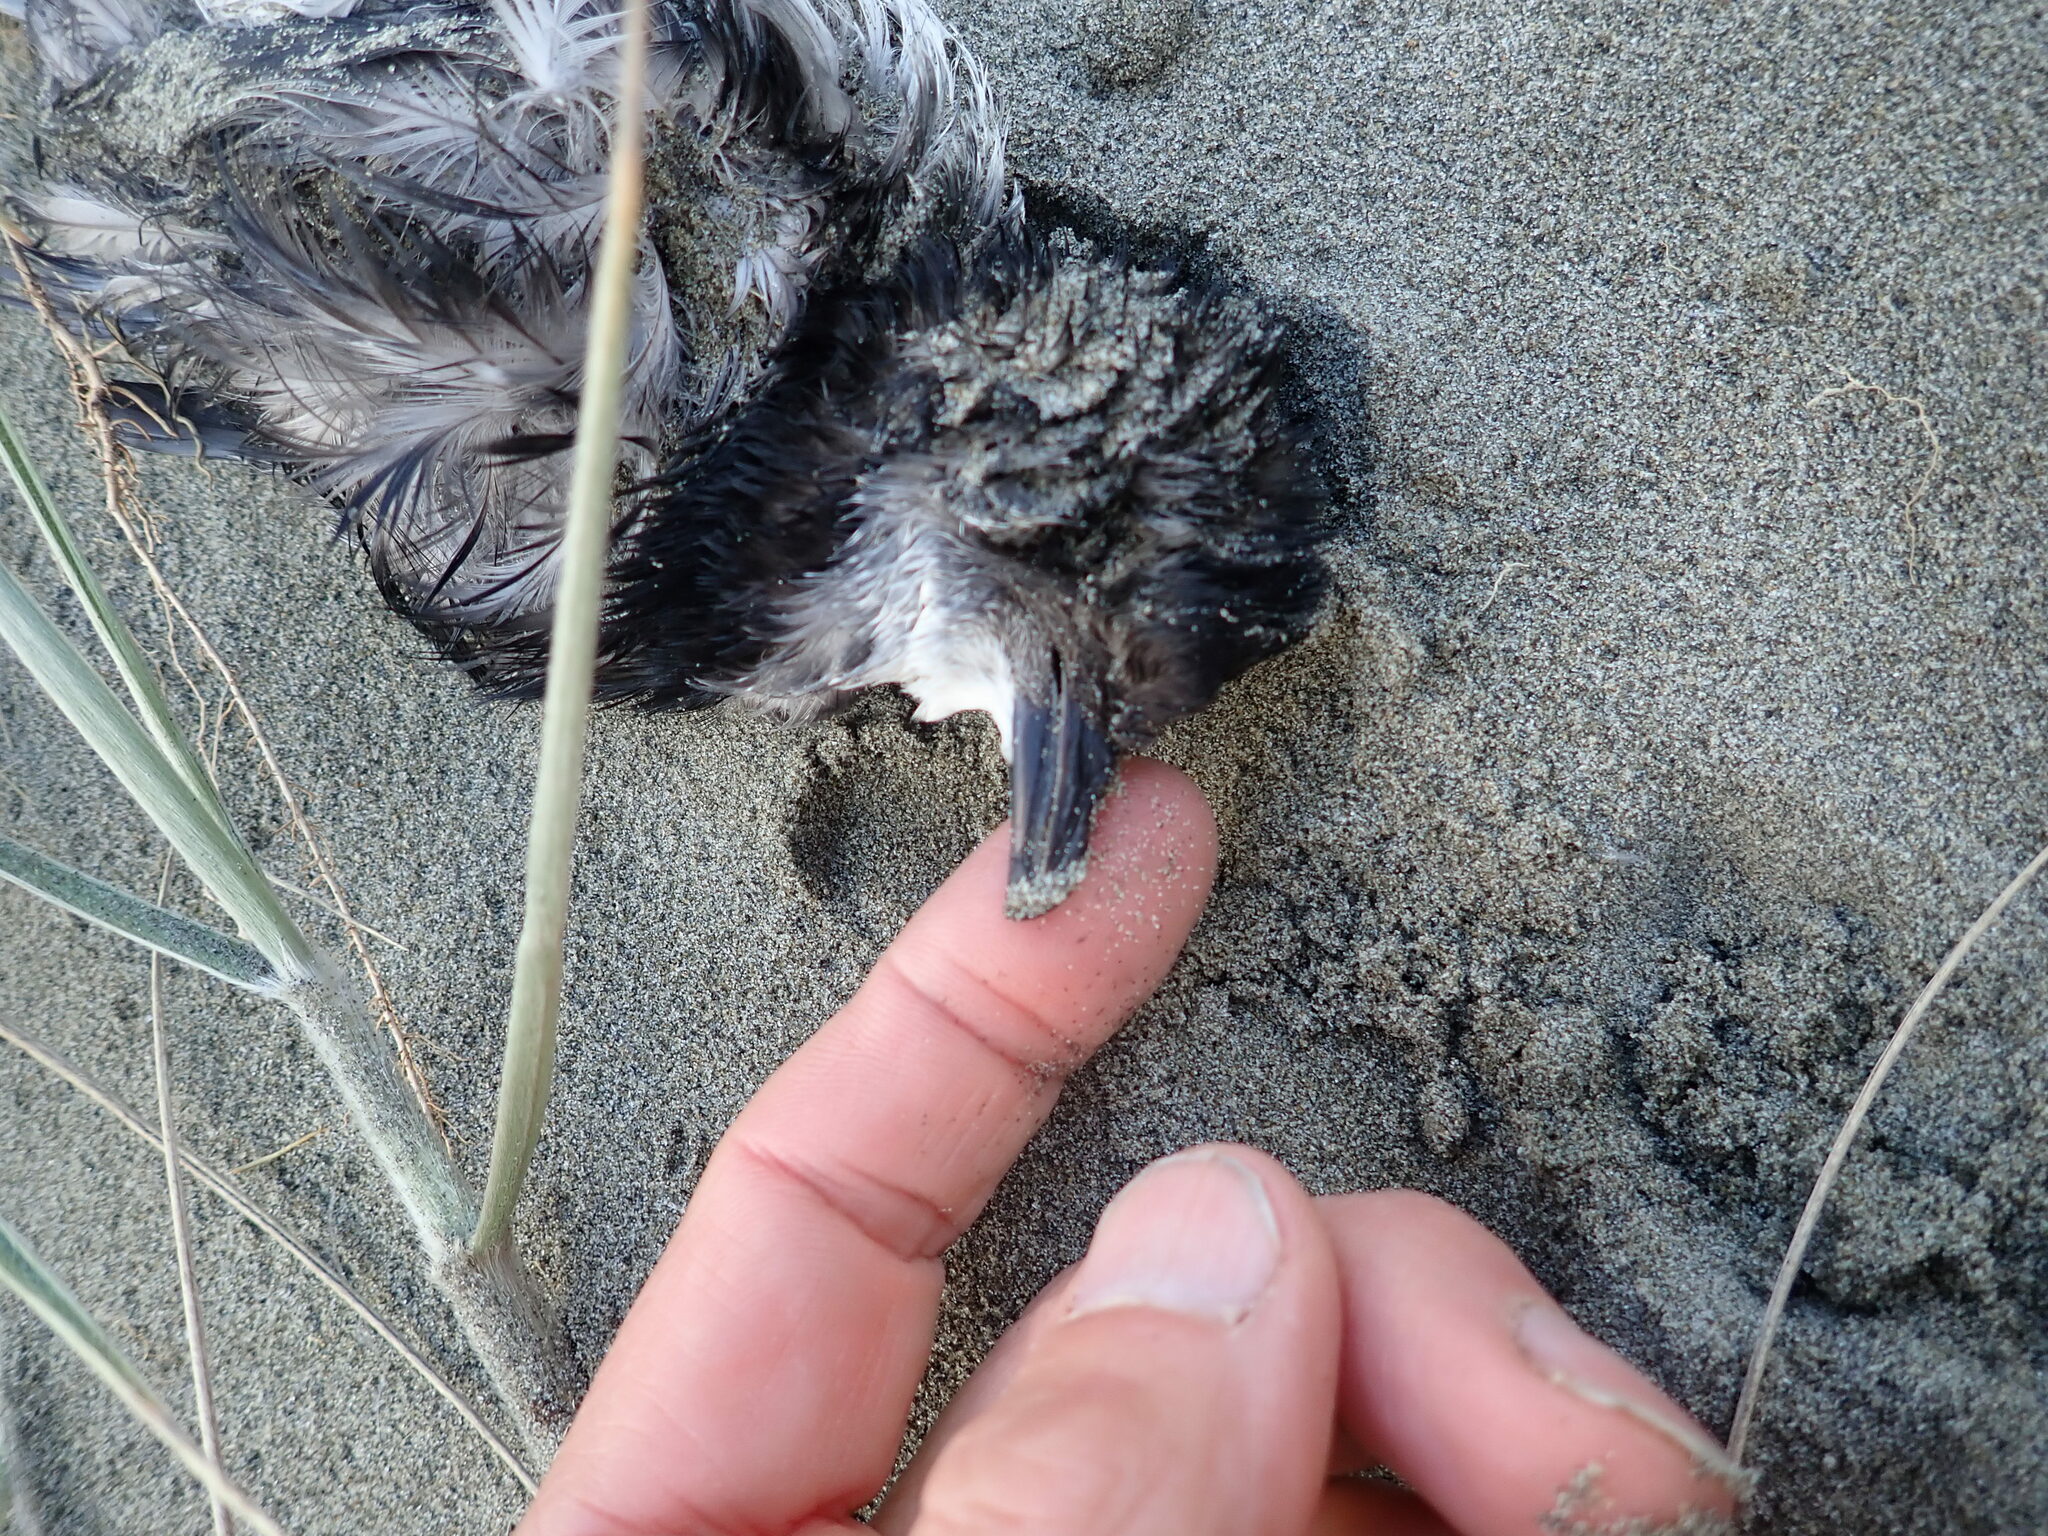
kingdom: Animalia
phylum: Chordata
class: Aves
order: Procellariiformes
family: Pelecanoididae
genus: Pelecanoides
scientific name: Pelecanoides urinatrix
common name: Common diving-petrel
